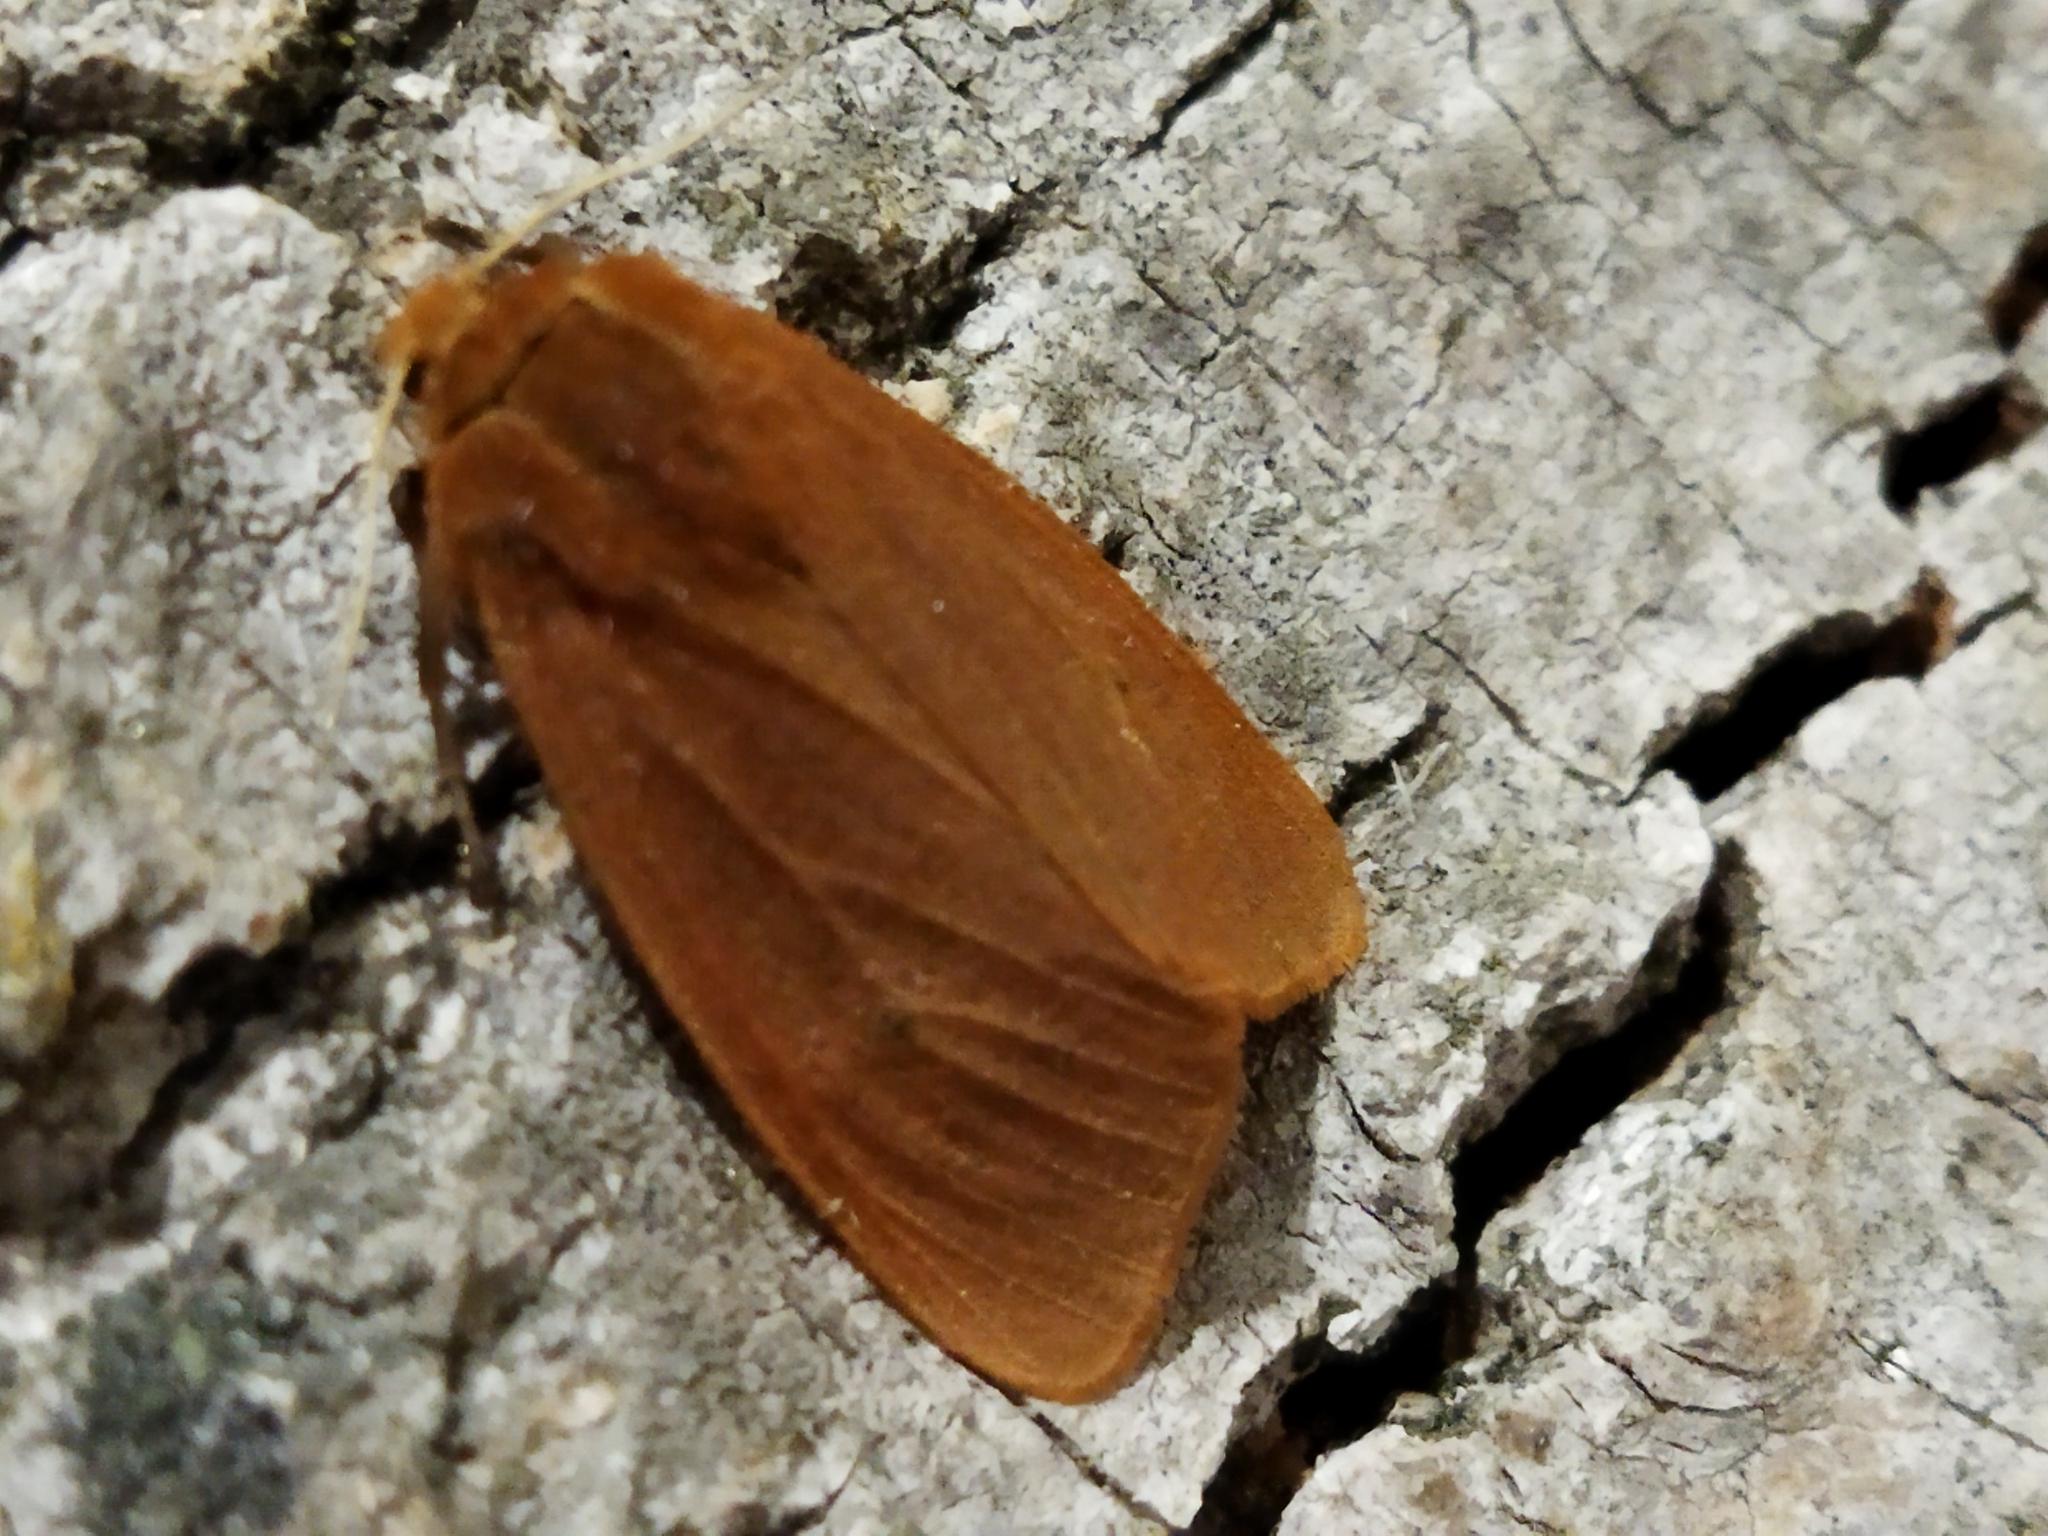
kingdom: Animalia
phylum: Arthropoda
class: Insecta
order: Lepidoptera
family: Erebidae
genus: Phragmatobia
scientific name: Phragmatobia fuliginosa
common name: Ruby tiger
